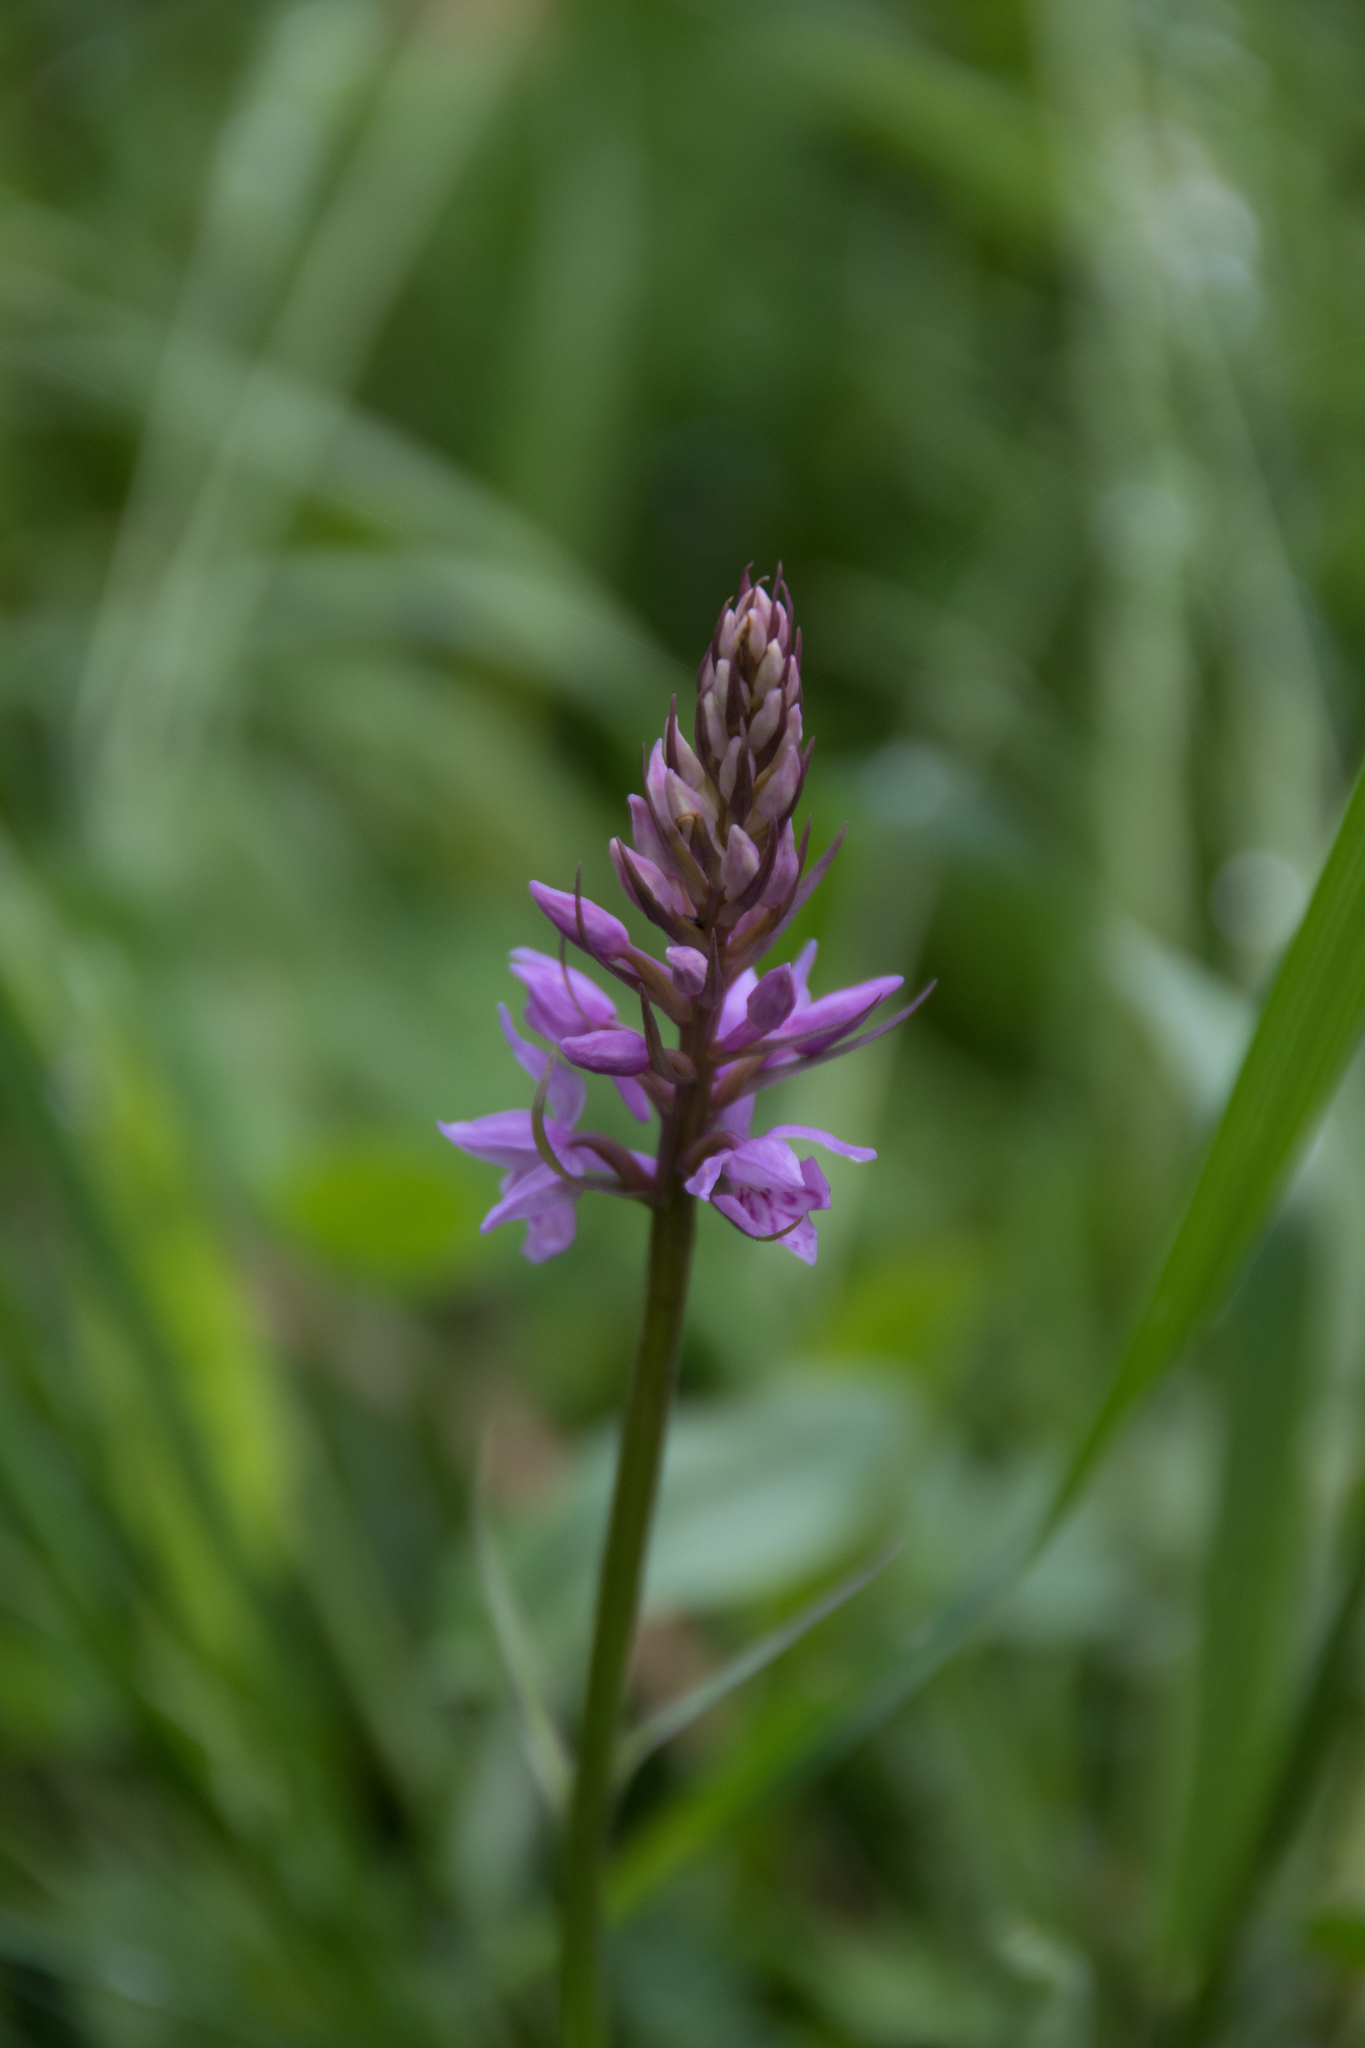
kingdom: Plantae
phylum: Tracheophyta
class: Liliopsida
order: Asparagales
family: Orchidaceae
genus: Dactylorhiza
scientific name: Dactylorhiza maculata
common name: Heath spotted-orchid
